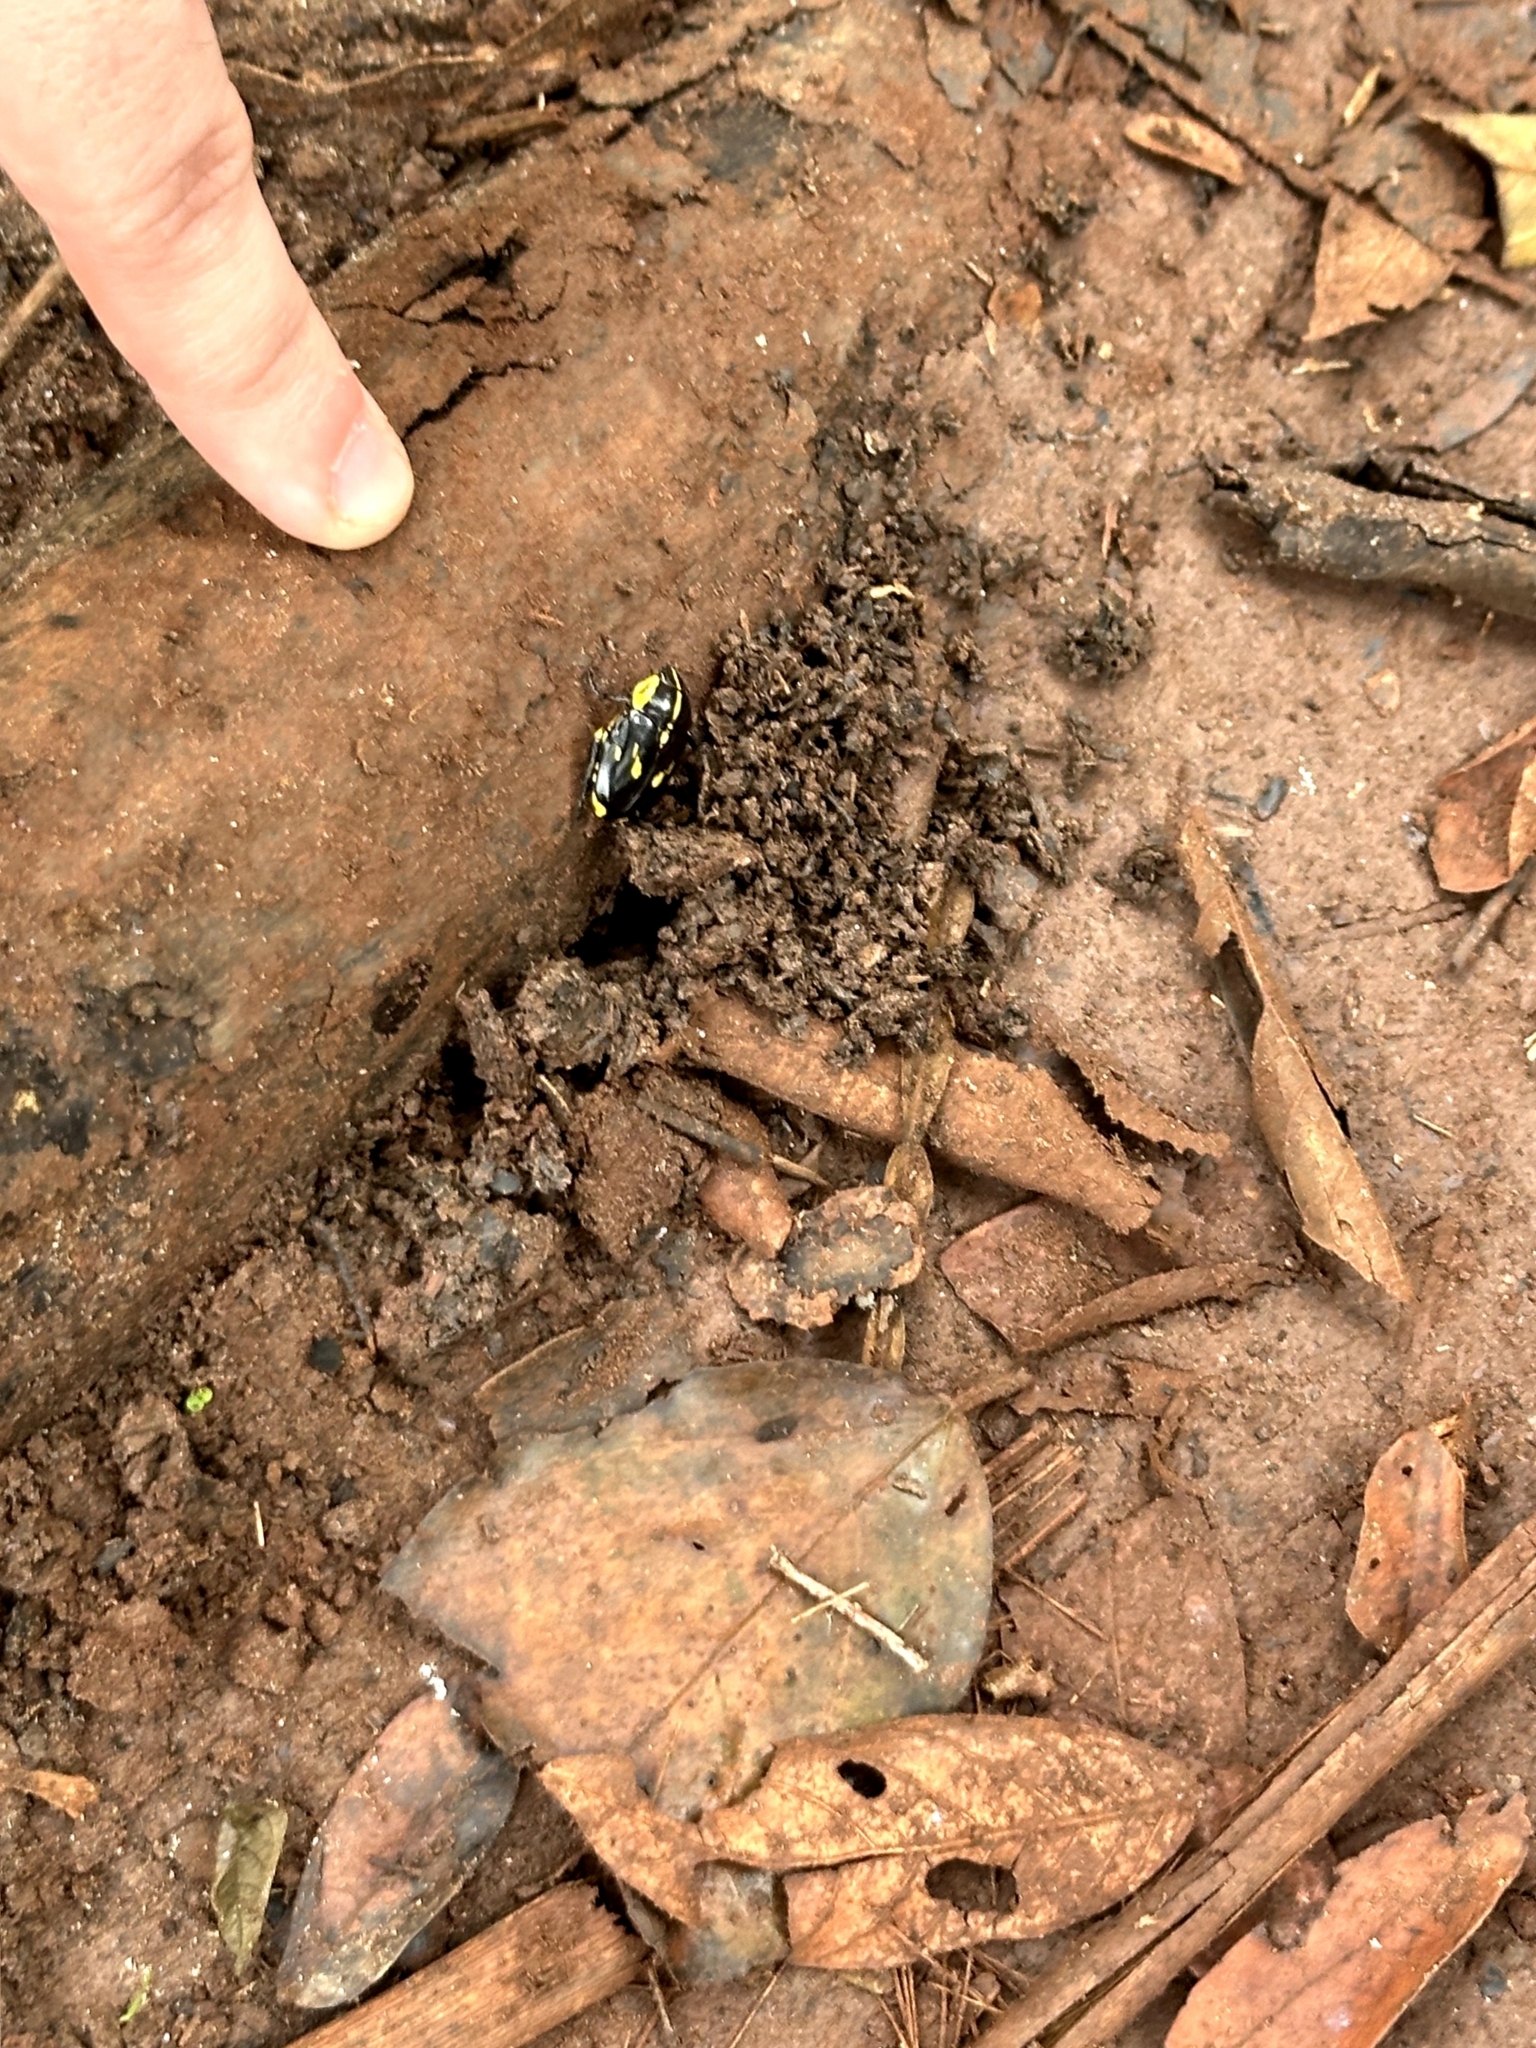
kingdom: Animalia
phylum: Arthropoda
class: Insecta
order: Coleoptera
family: Scarabaeidae
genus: Rutela
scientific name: Rutela lineola
